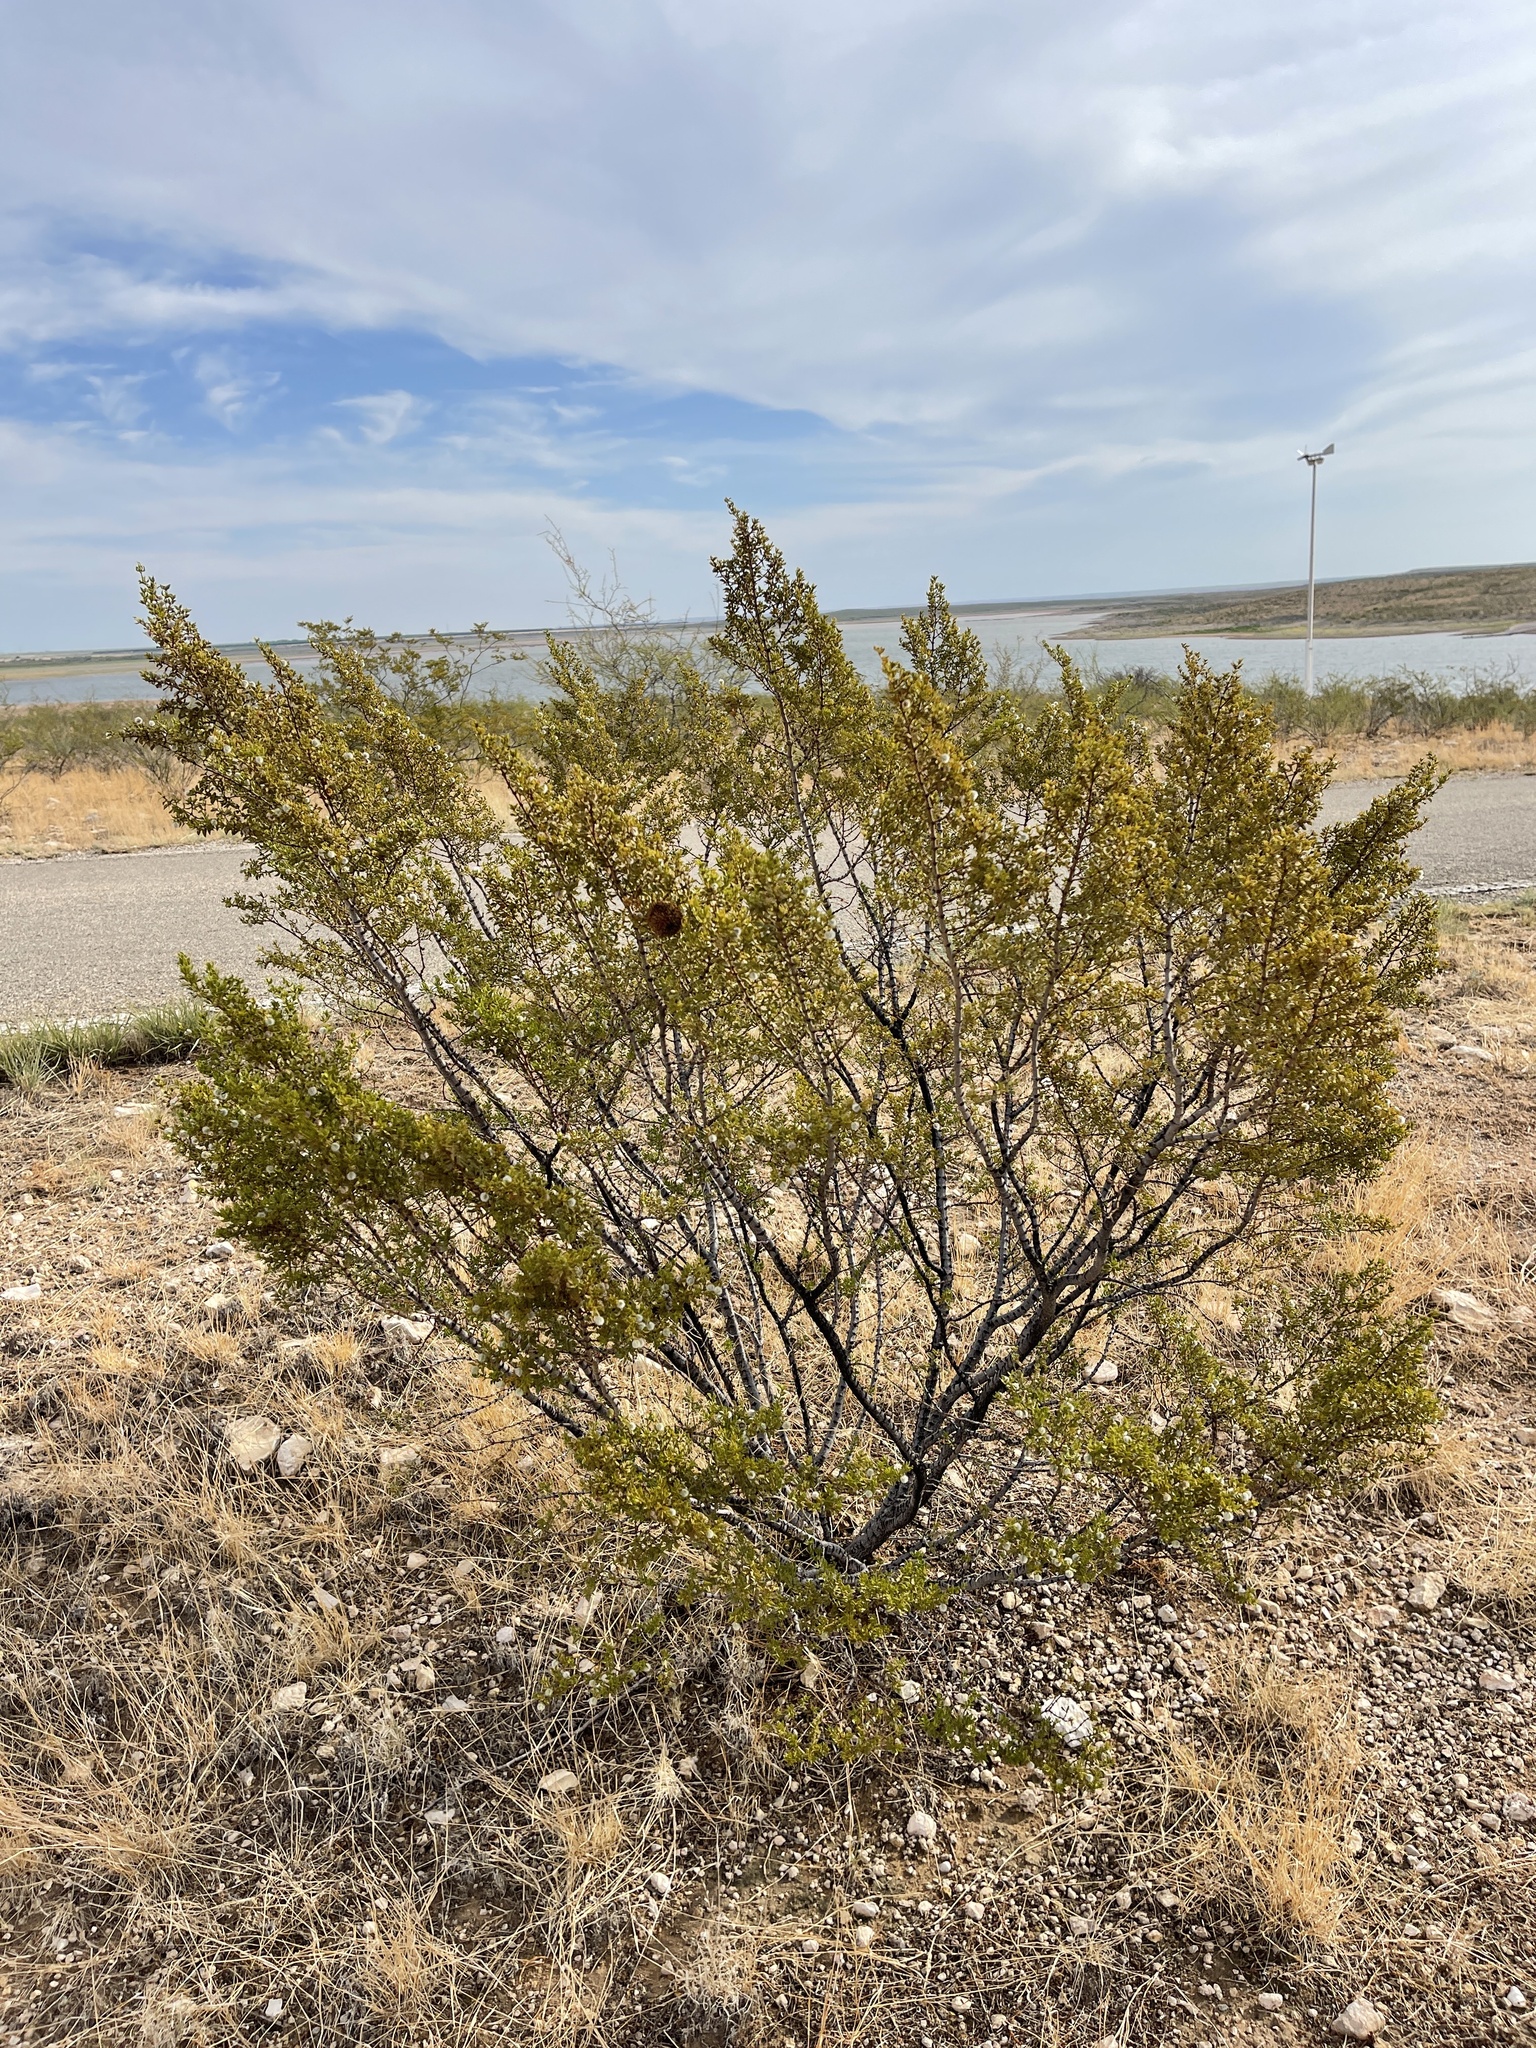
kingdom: Plantae
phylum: Tracheophyta
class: Magnoliopsida
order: Zygophyllales
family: Zygophyllaceae
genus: Larrea
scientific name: Larrea tridentata
